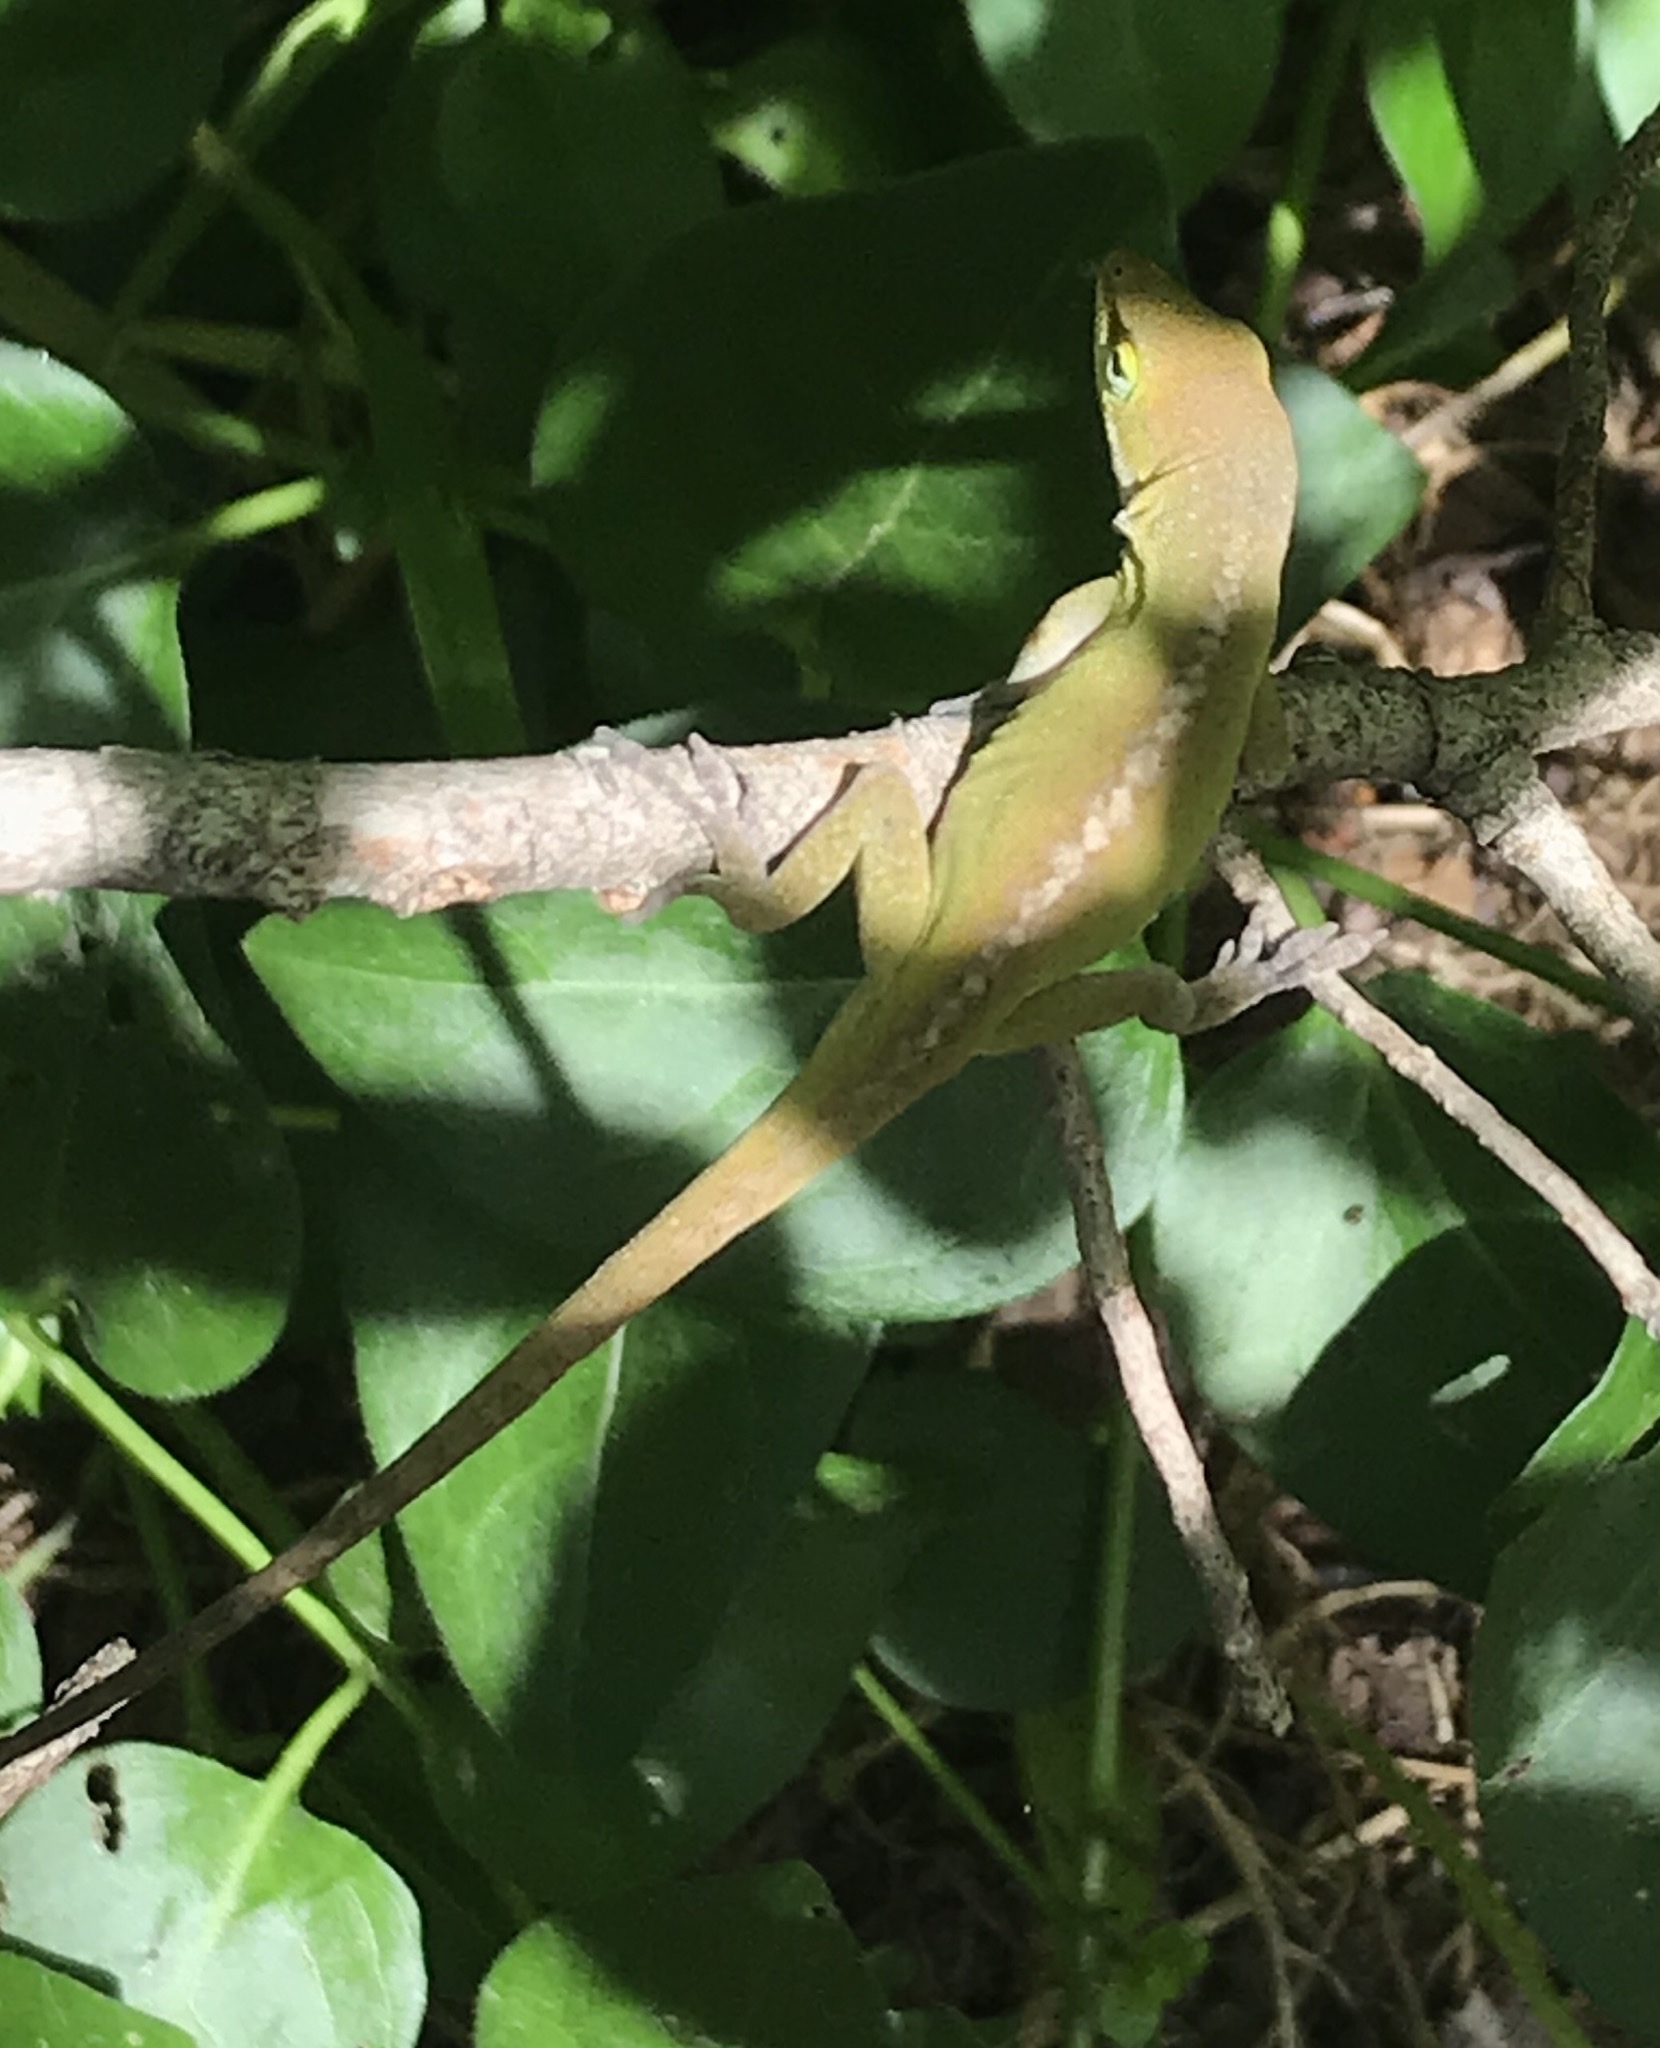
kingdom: Animalia
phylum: Chordata
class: Squamata
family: Dactyloidae
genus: Anolis
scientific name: Anolis carolinensis
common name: Green anole
